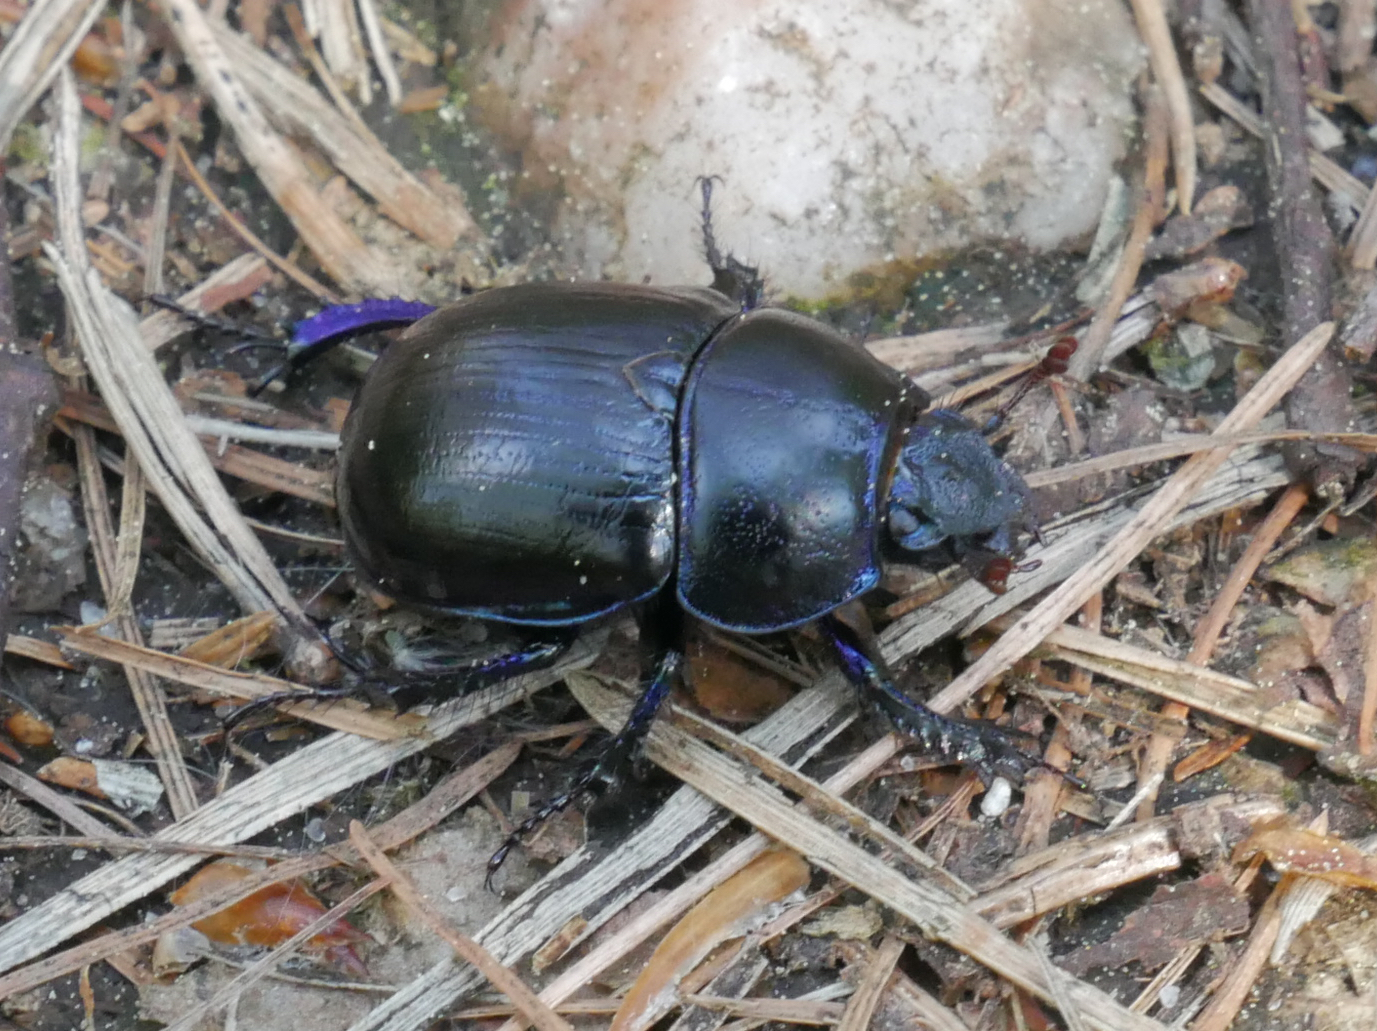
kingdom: Animalia
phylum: Arthropoda
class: Insecta
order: Coleoptera
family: Geotrupidae
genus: Anoplotrupes
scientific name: Anoplotrupes stercorosus
